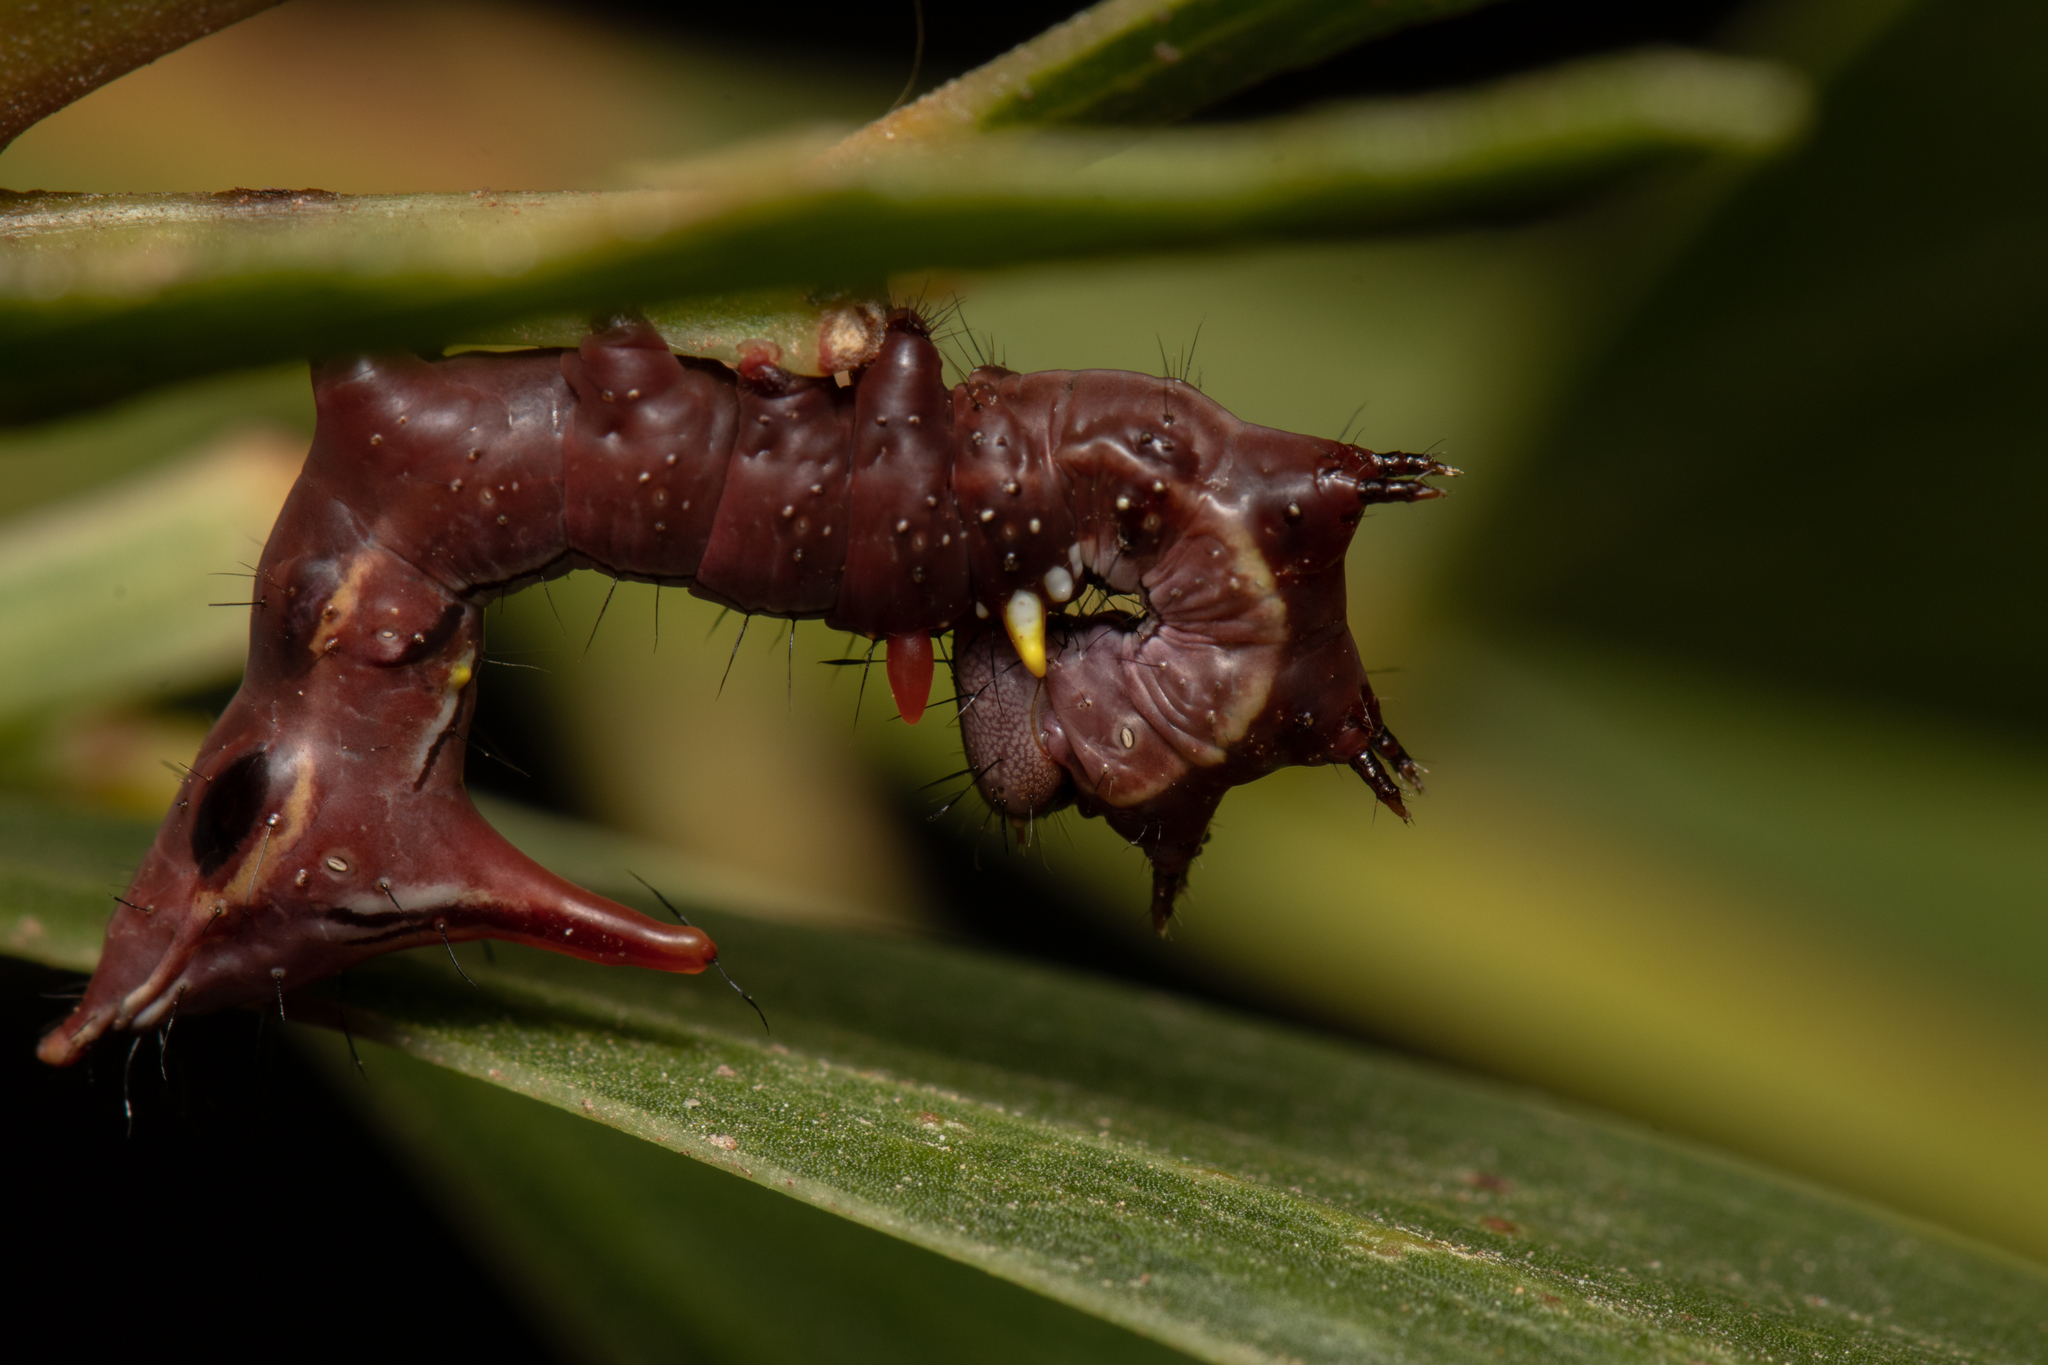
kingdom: Animalia
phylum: Arthropoda
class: Insecta
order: Lepidoptera
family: Notodontidae
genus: Neola
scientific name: Neola semiaurata
